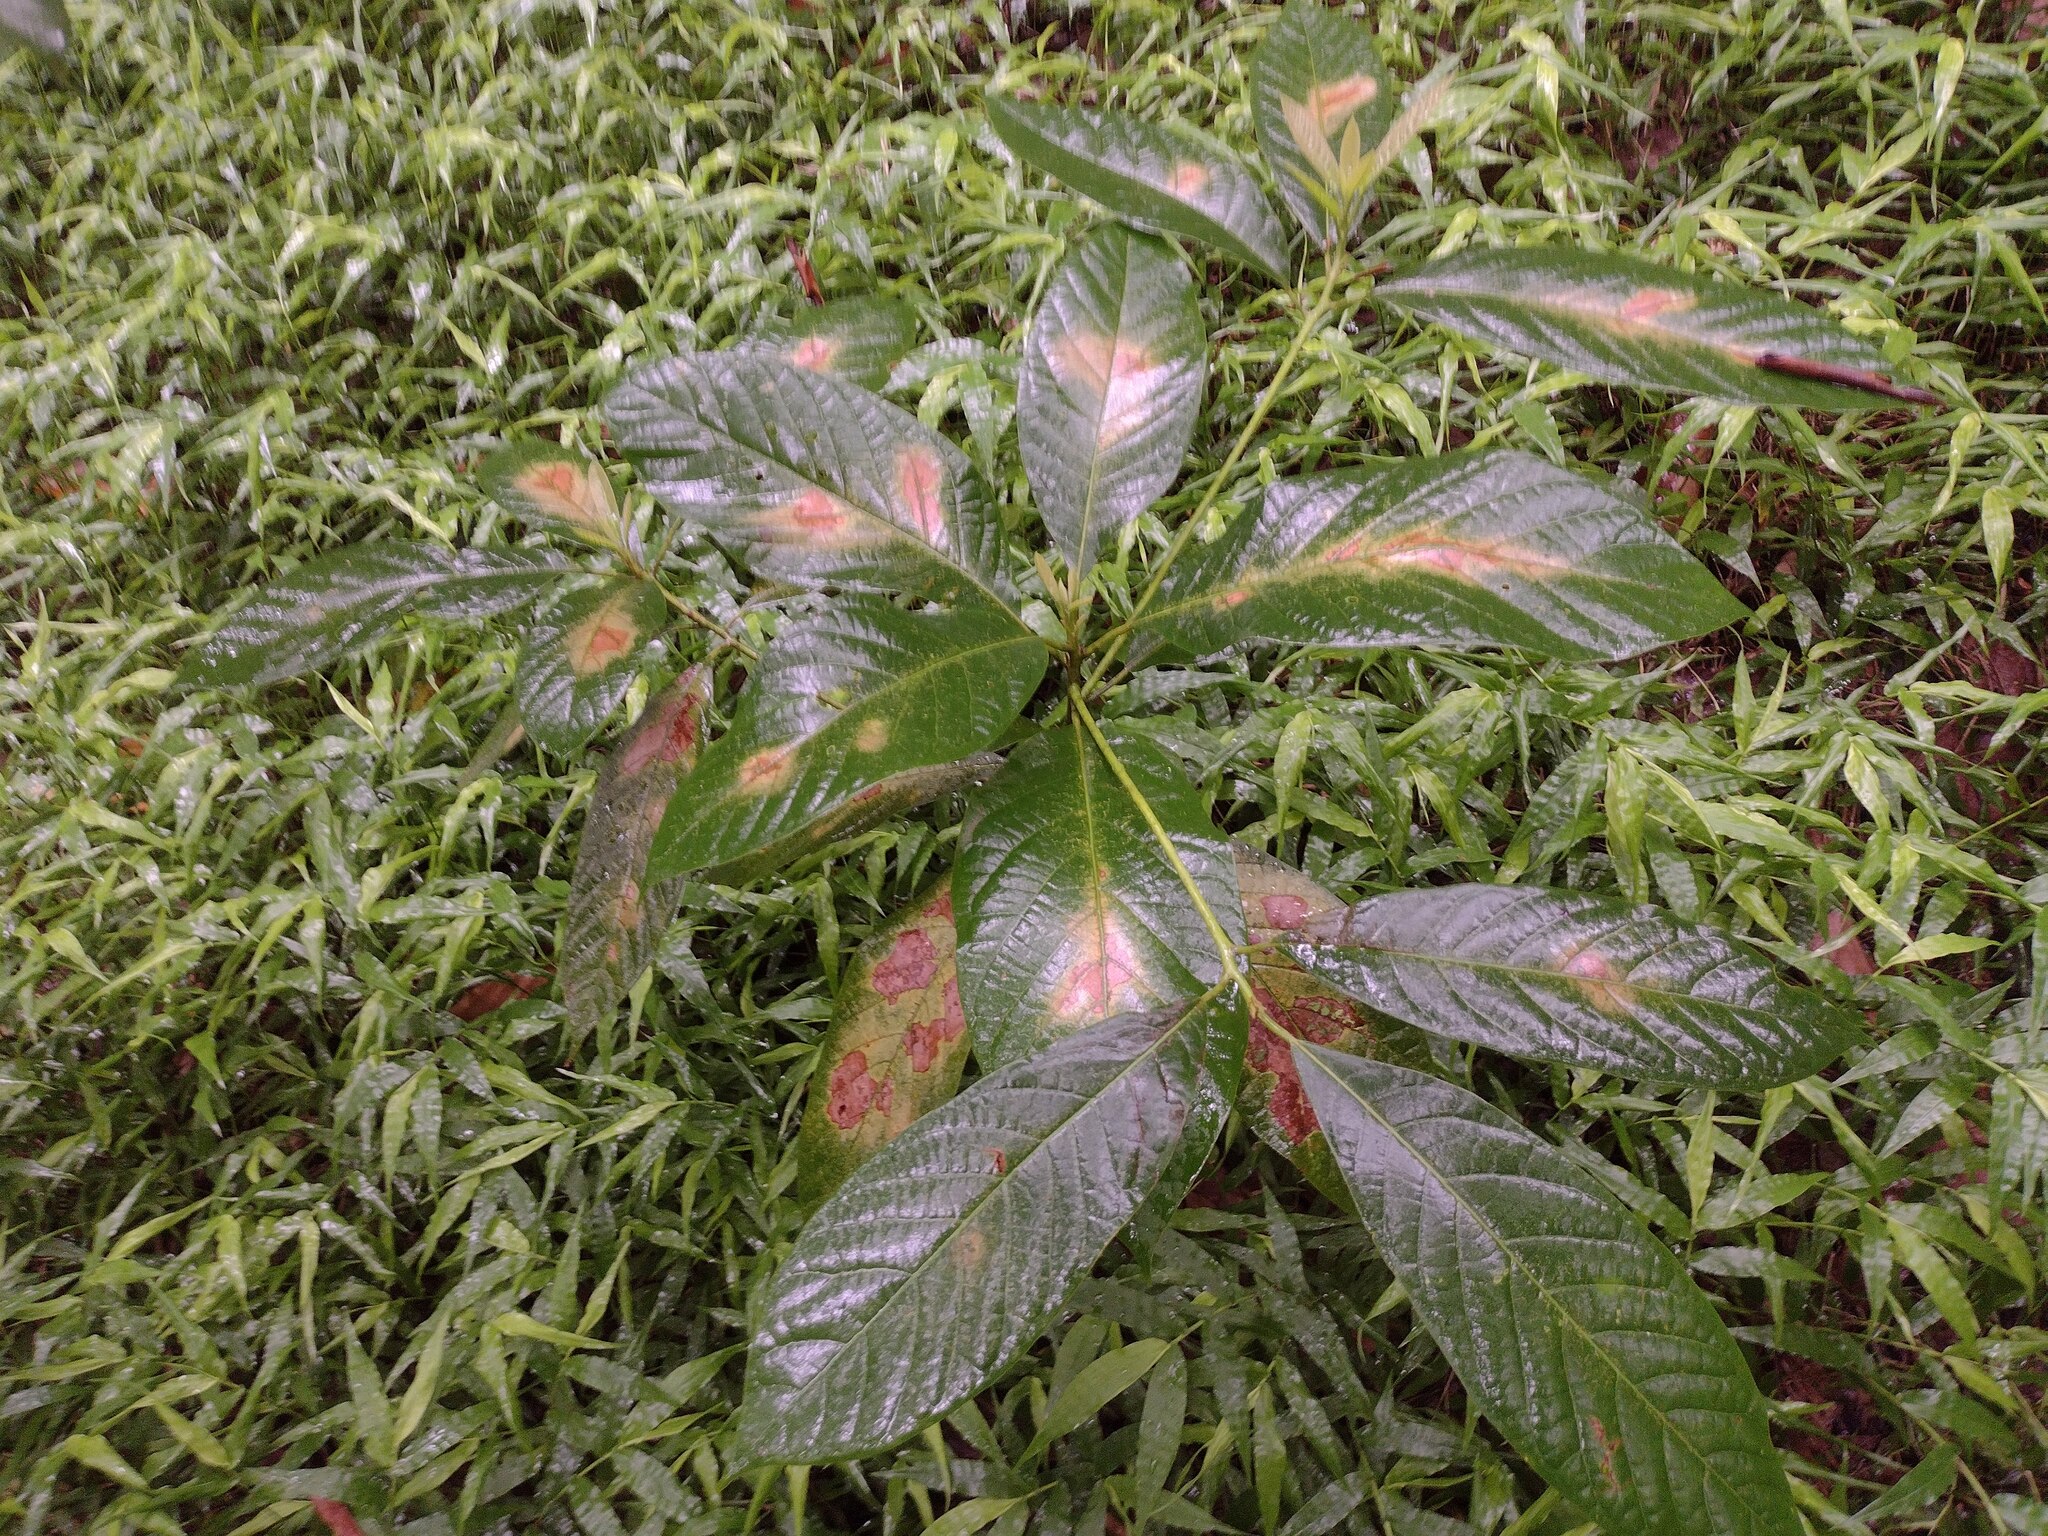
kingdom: Plantae
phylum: Tracheophyta
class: Magnoliopsida
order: Laurales
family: Lauraceae
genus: Persea
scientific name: Persea americana
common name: Avocado
